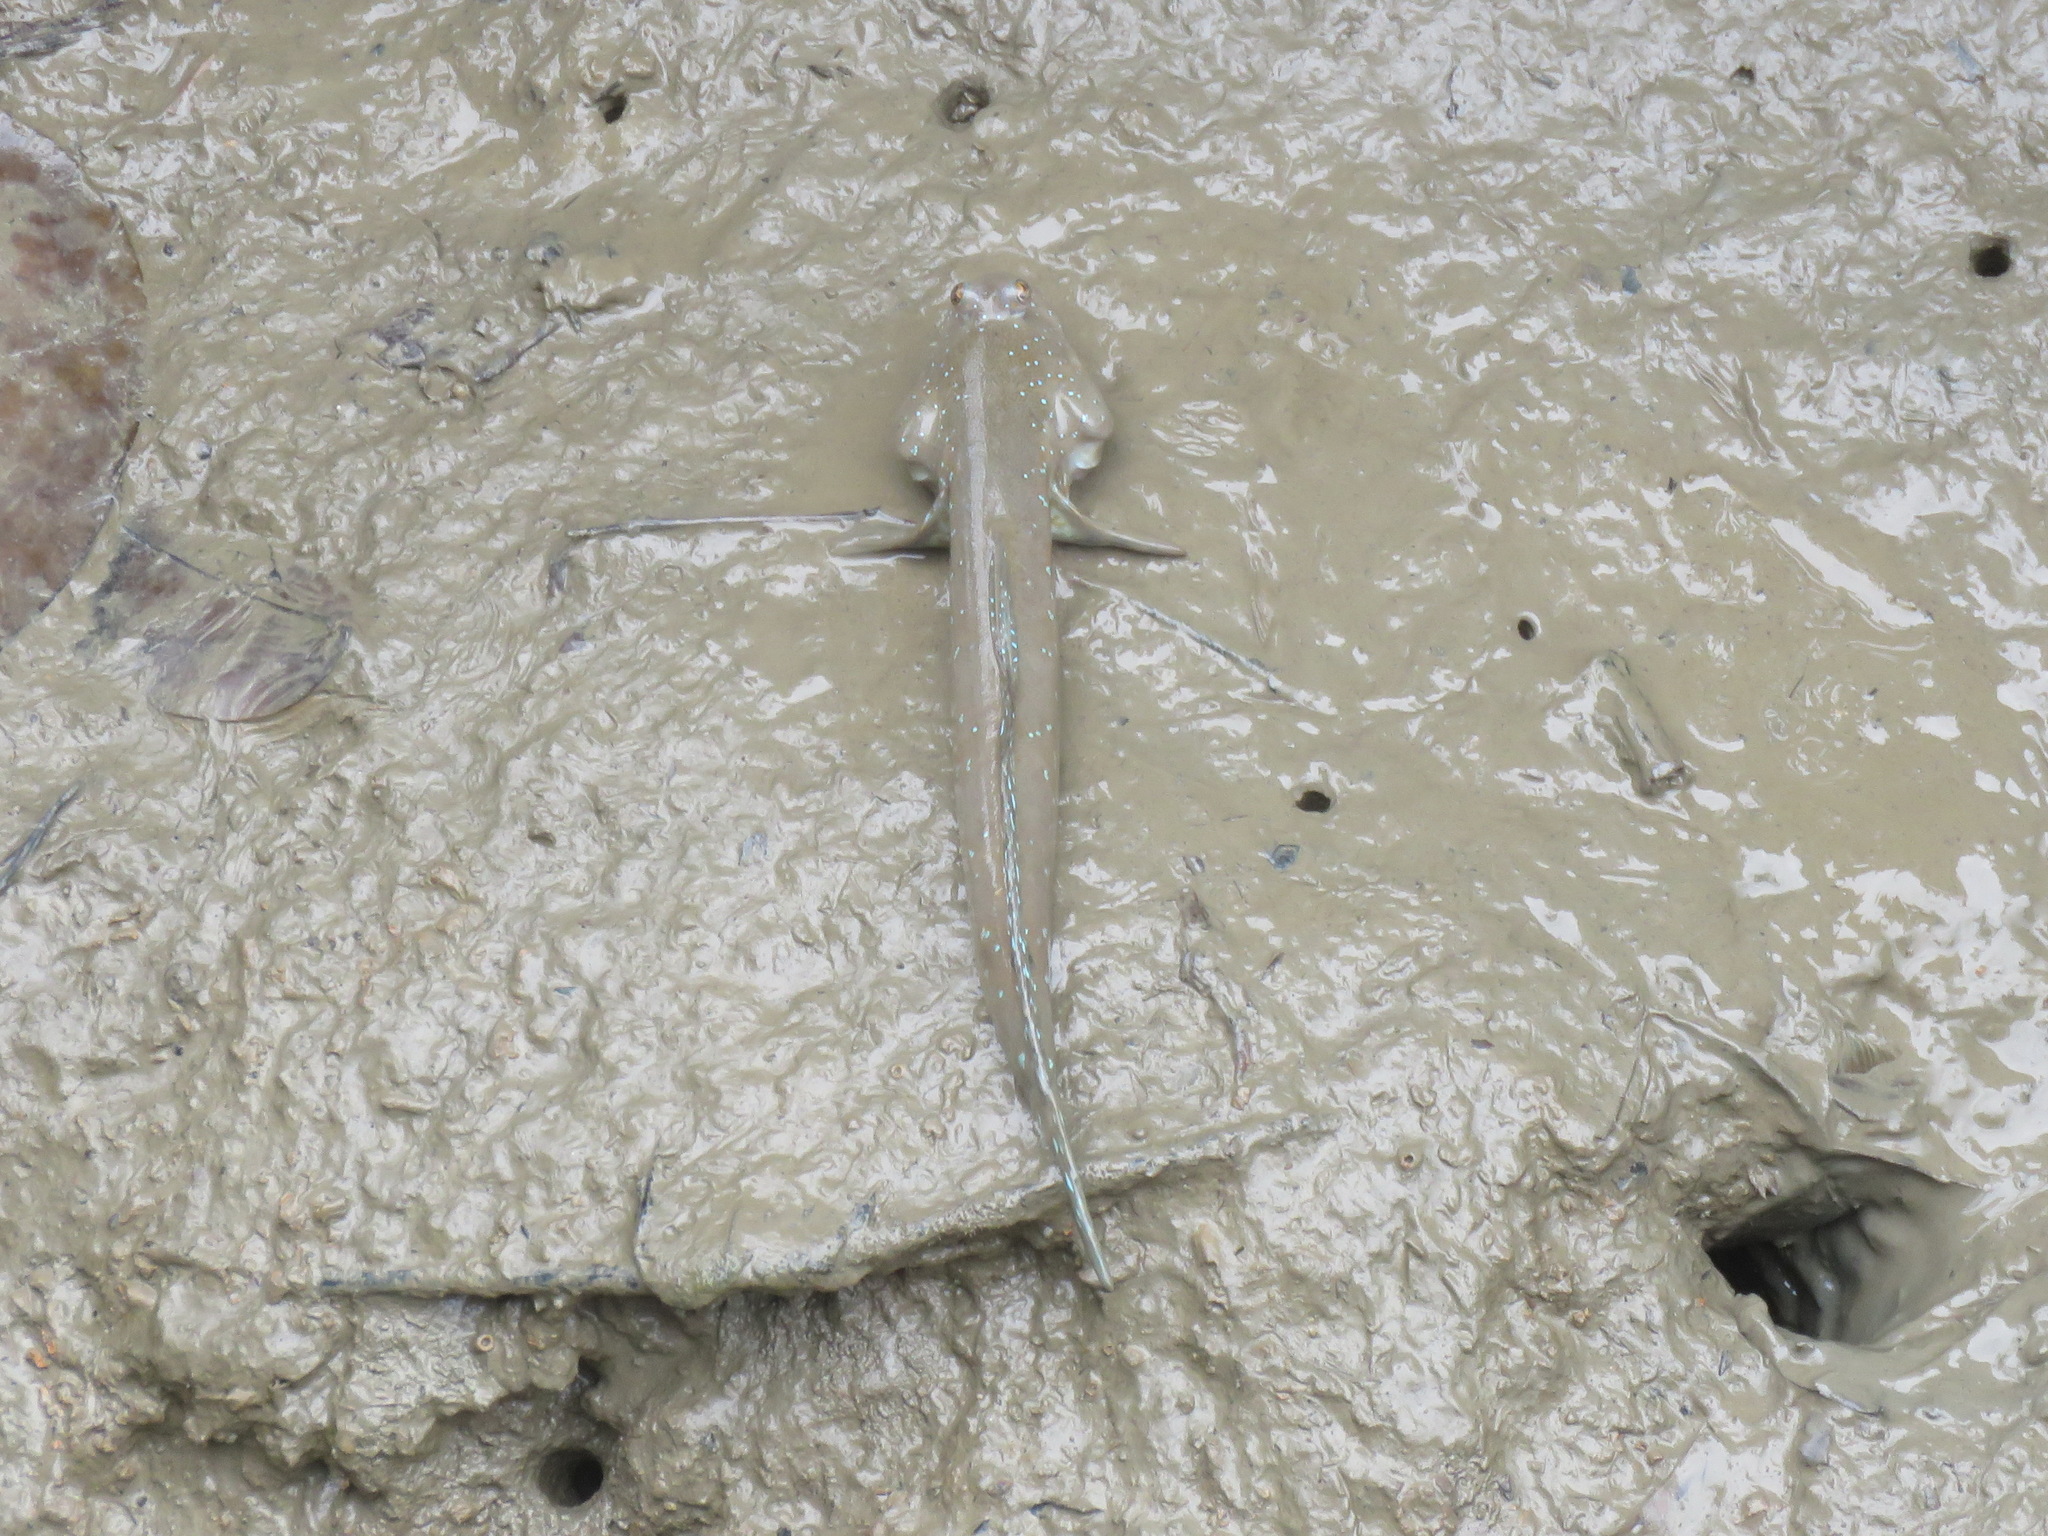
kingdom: Animalia
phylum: Chordata
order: Perciformes
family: Gobiidae
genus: Boleophthalmus
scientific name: Boleophthalmus pectinirostris
